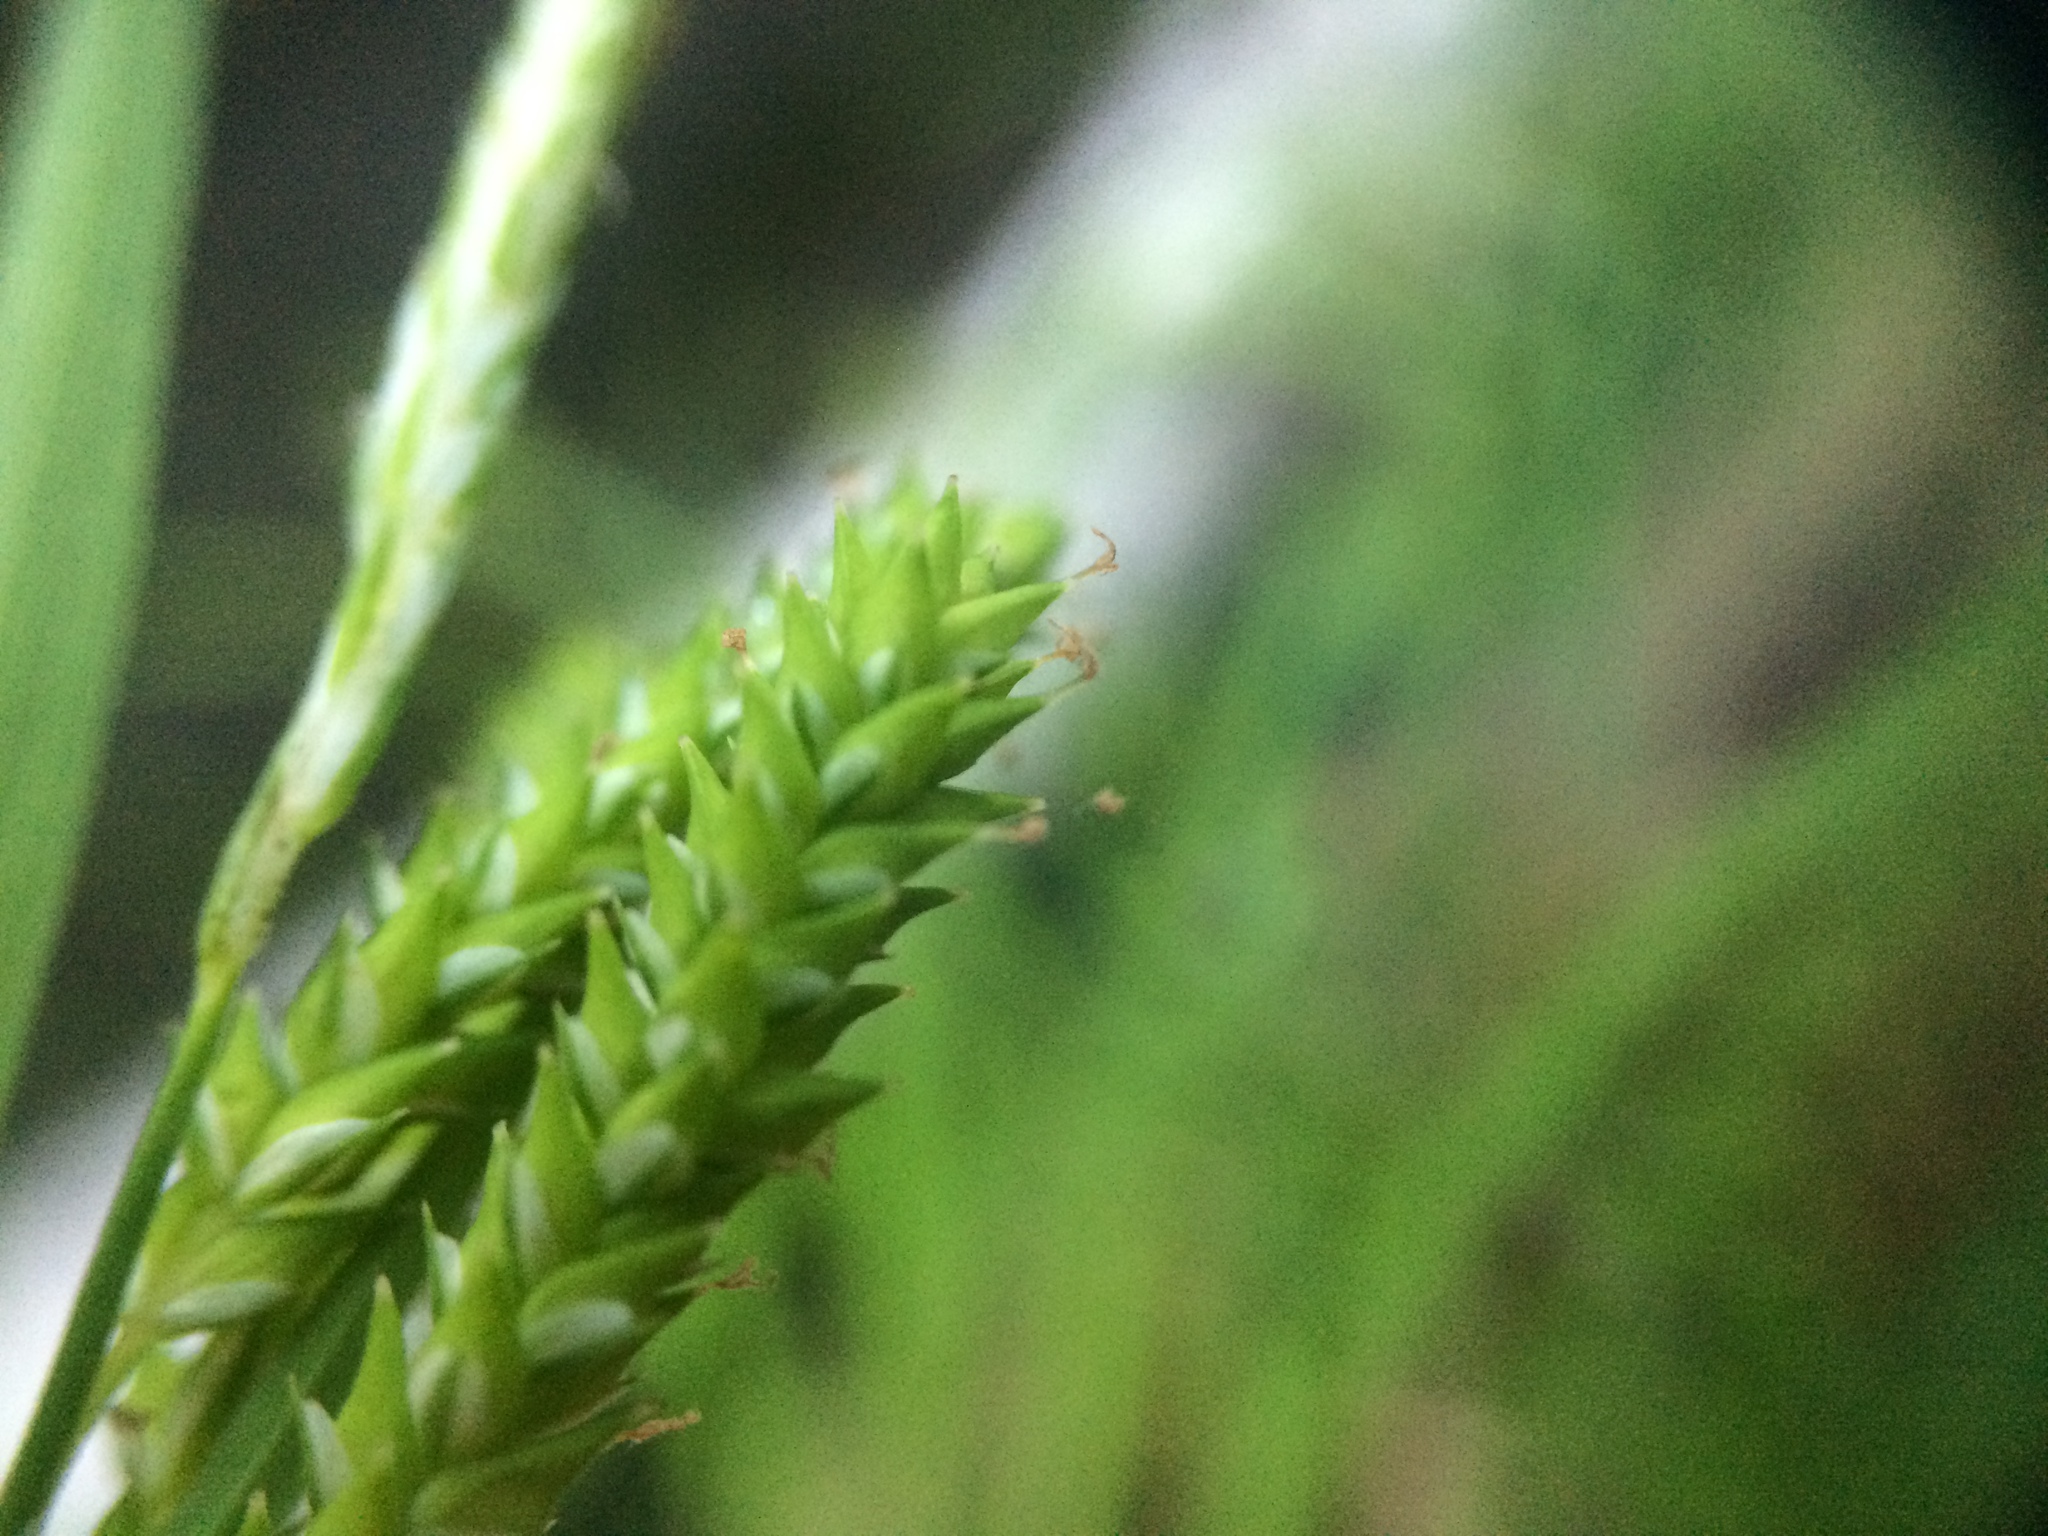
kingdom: Plantae
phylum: Tracheophyta
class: Liliopsida
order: Poales
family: Cyperaceae
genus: Carex
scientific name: Carex prasina
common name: Drooping sedge
